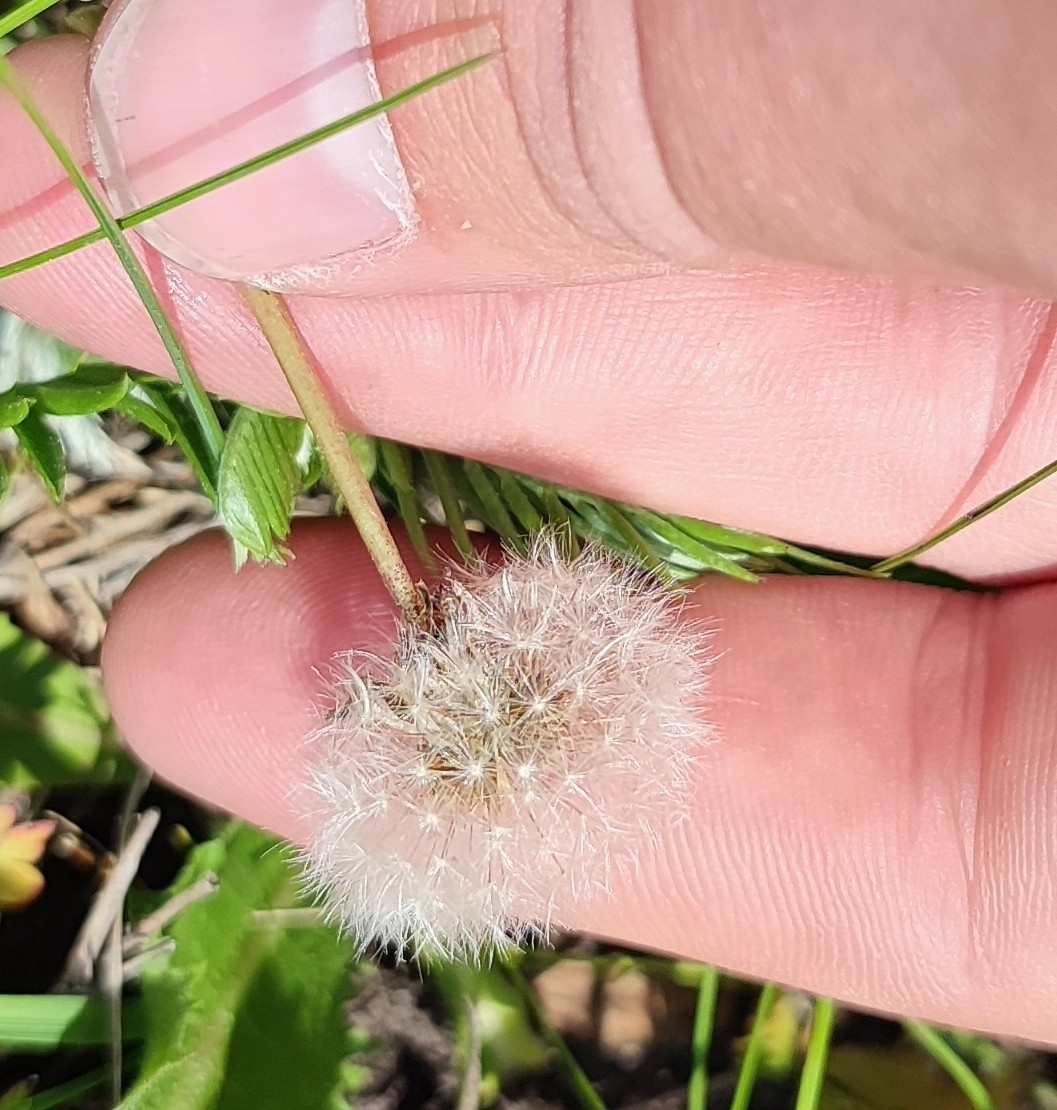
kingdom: Plantae
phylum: Tracheophyta
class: Magnoliopsida
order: Asterales
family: Asteraceae
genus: Taraxacum
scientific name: Taraxacum officinale
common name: Common dandelion
